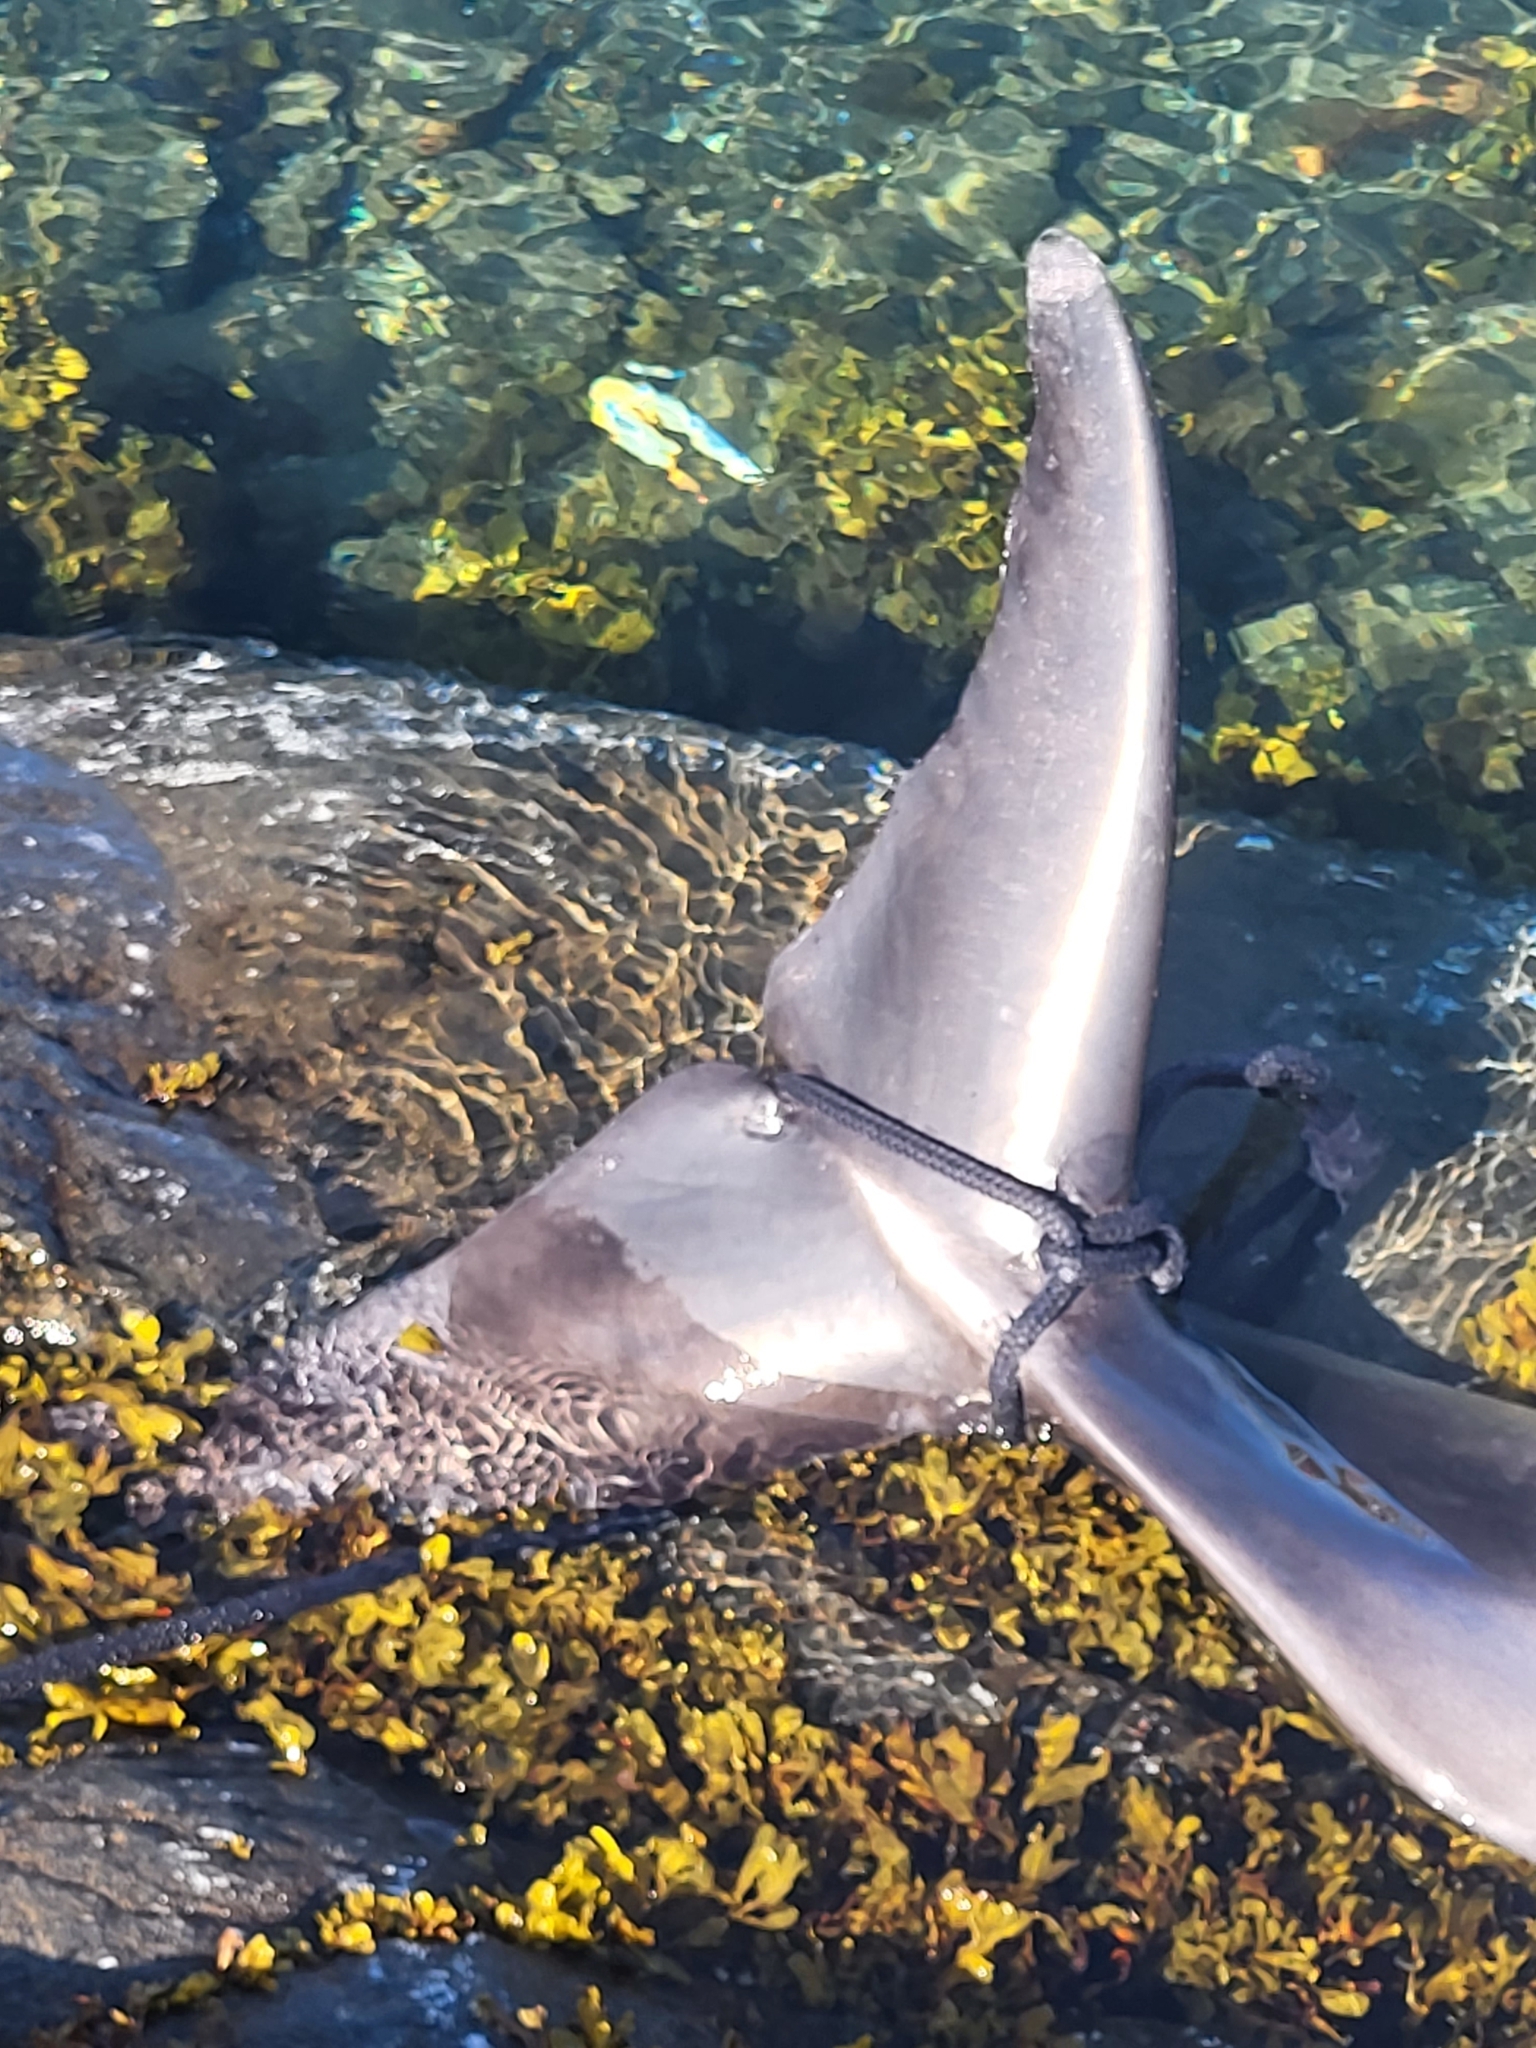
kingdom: Animalia
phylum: Chordata
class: Mammalia
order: Cetacea
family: Delphinidae
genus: Lagenorhynchus
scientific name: Lagenorhynchus albirostris
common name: White-beaked dolphin
